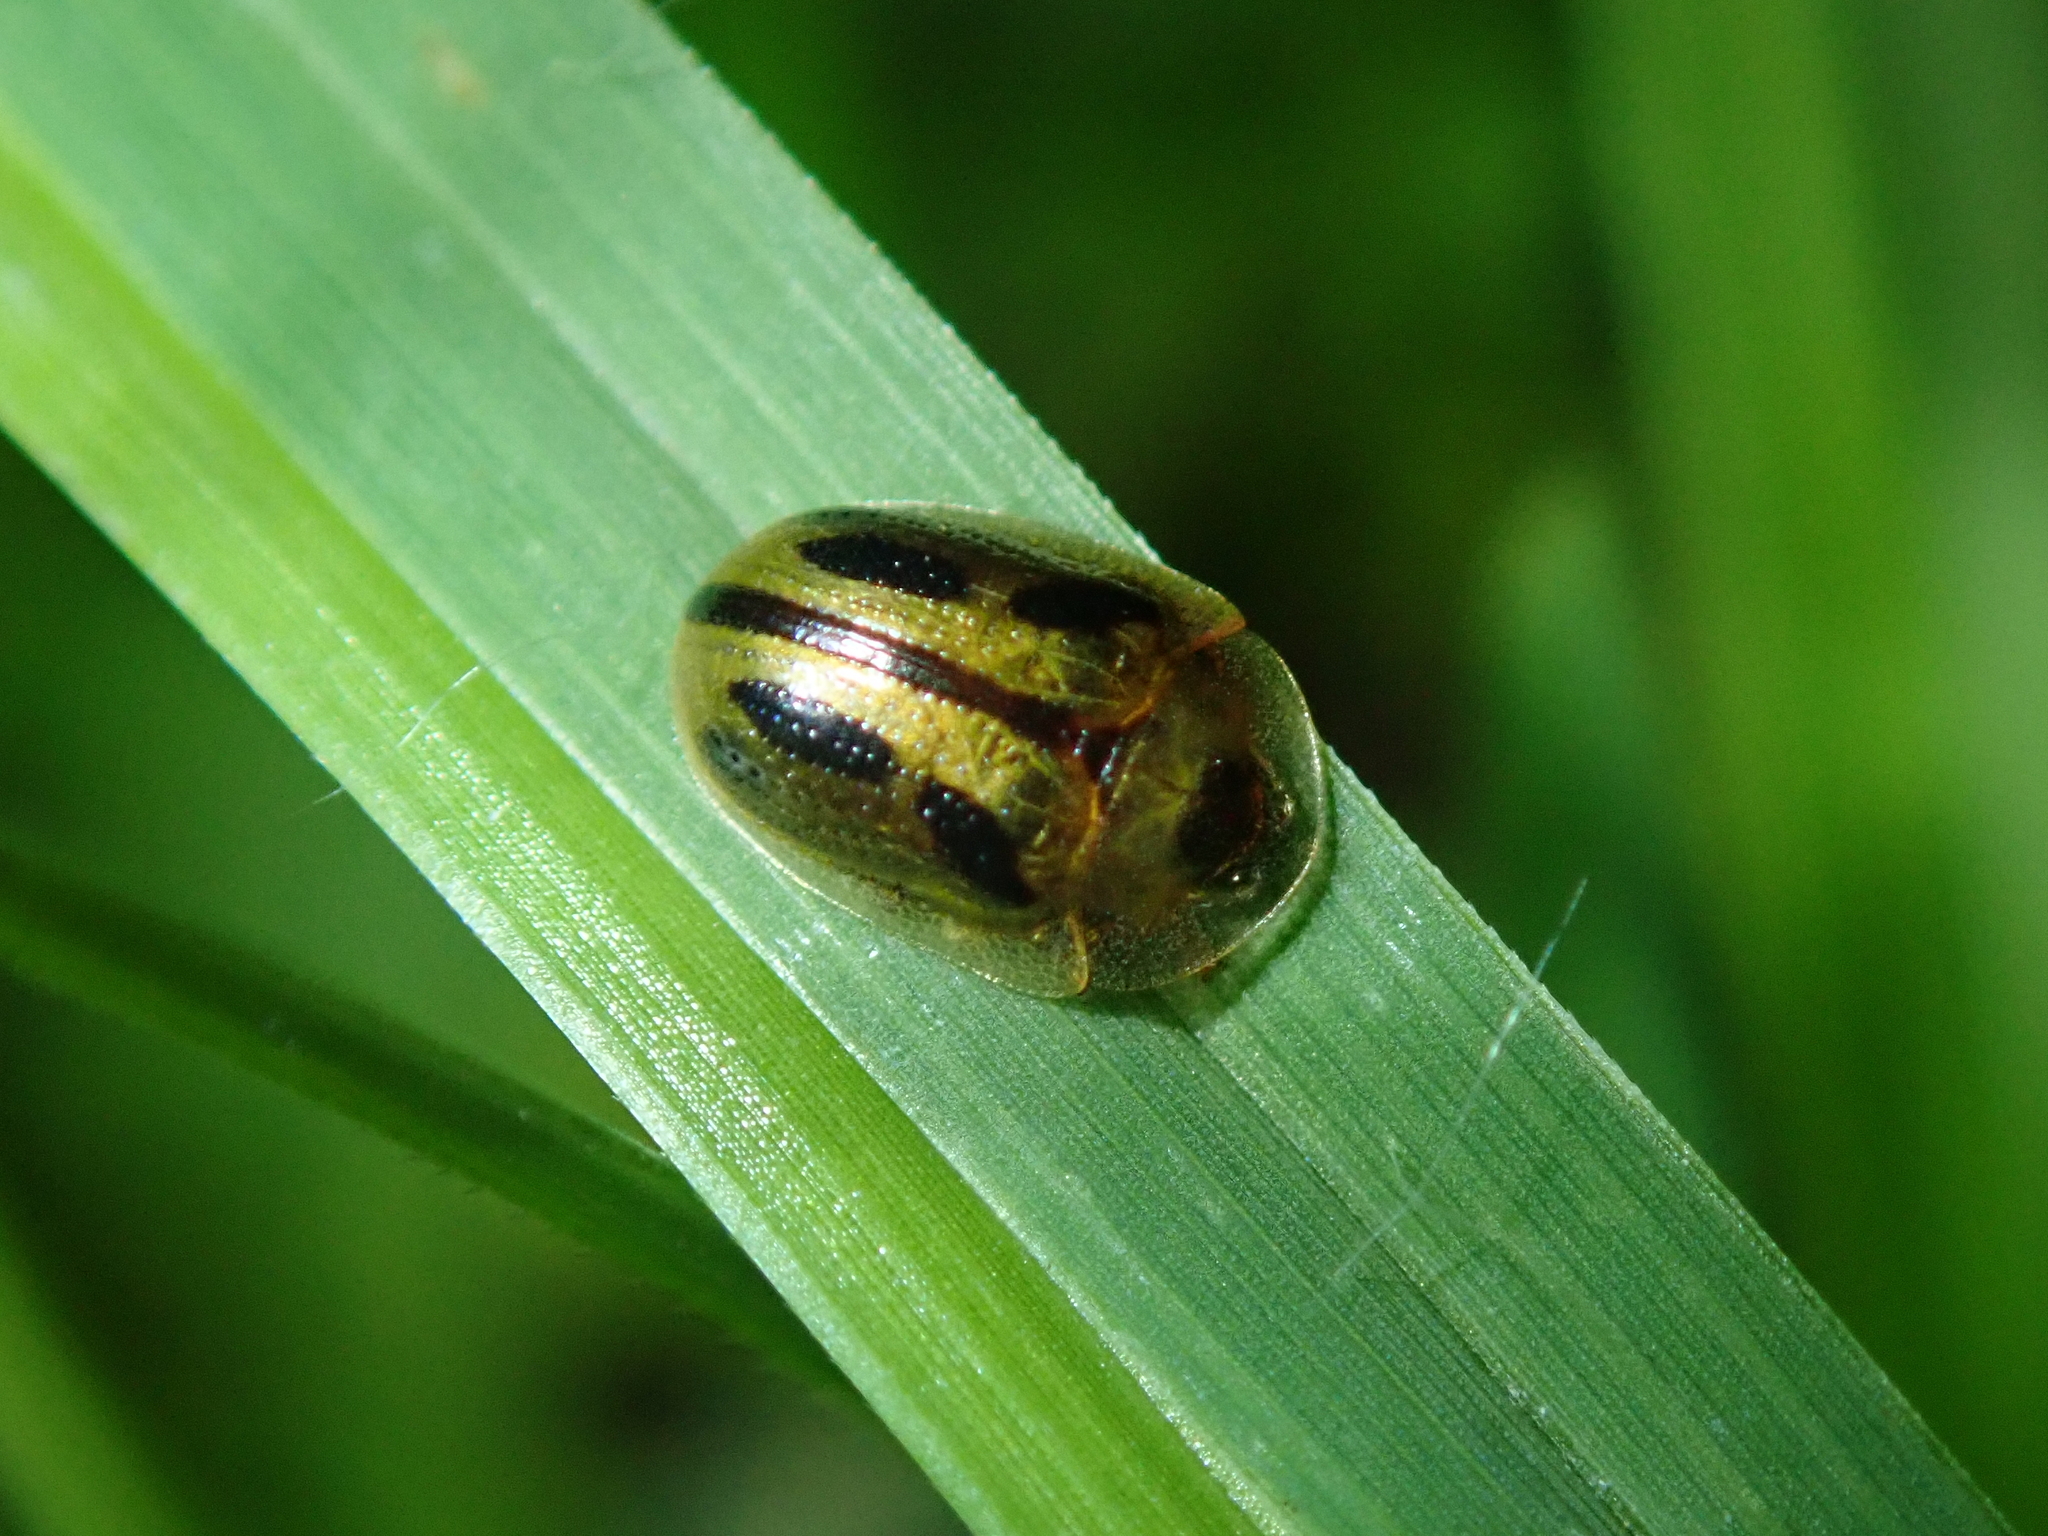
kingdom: Animalia
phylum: Arthropoda
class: Insecta
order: Coleoptera
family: Chrysomelidae
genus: Bradycassis
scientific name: Bradycassis romani
